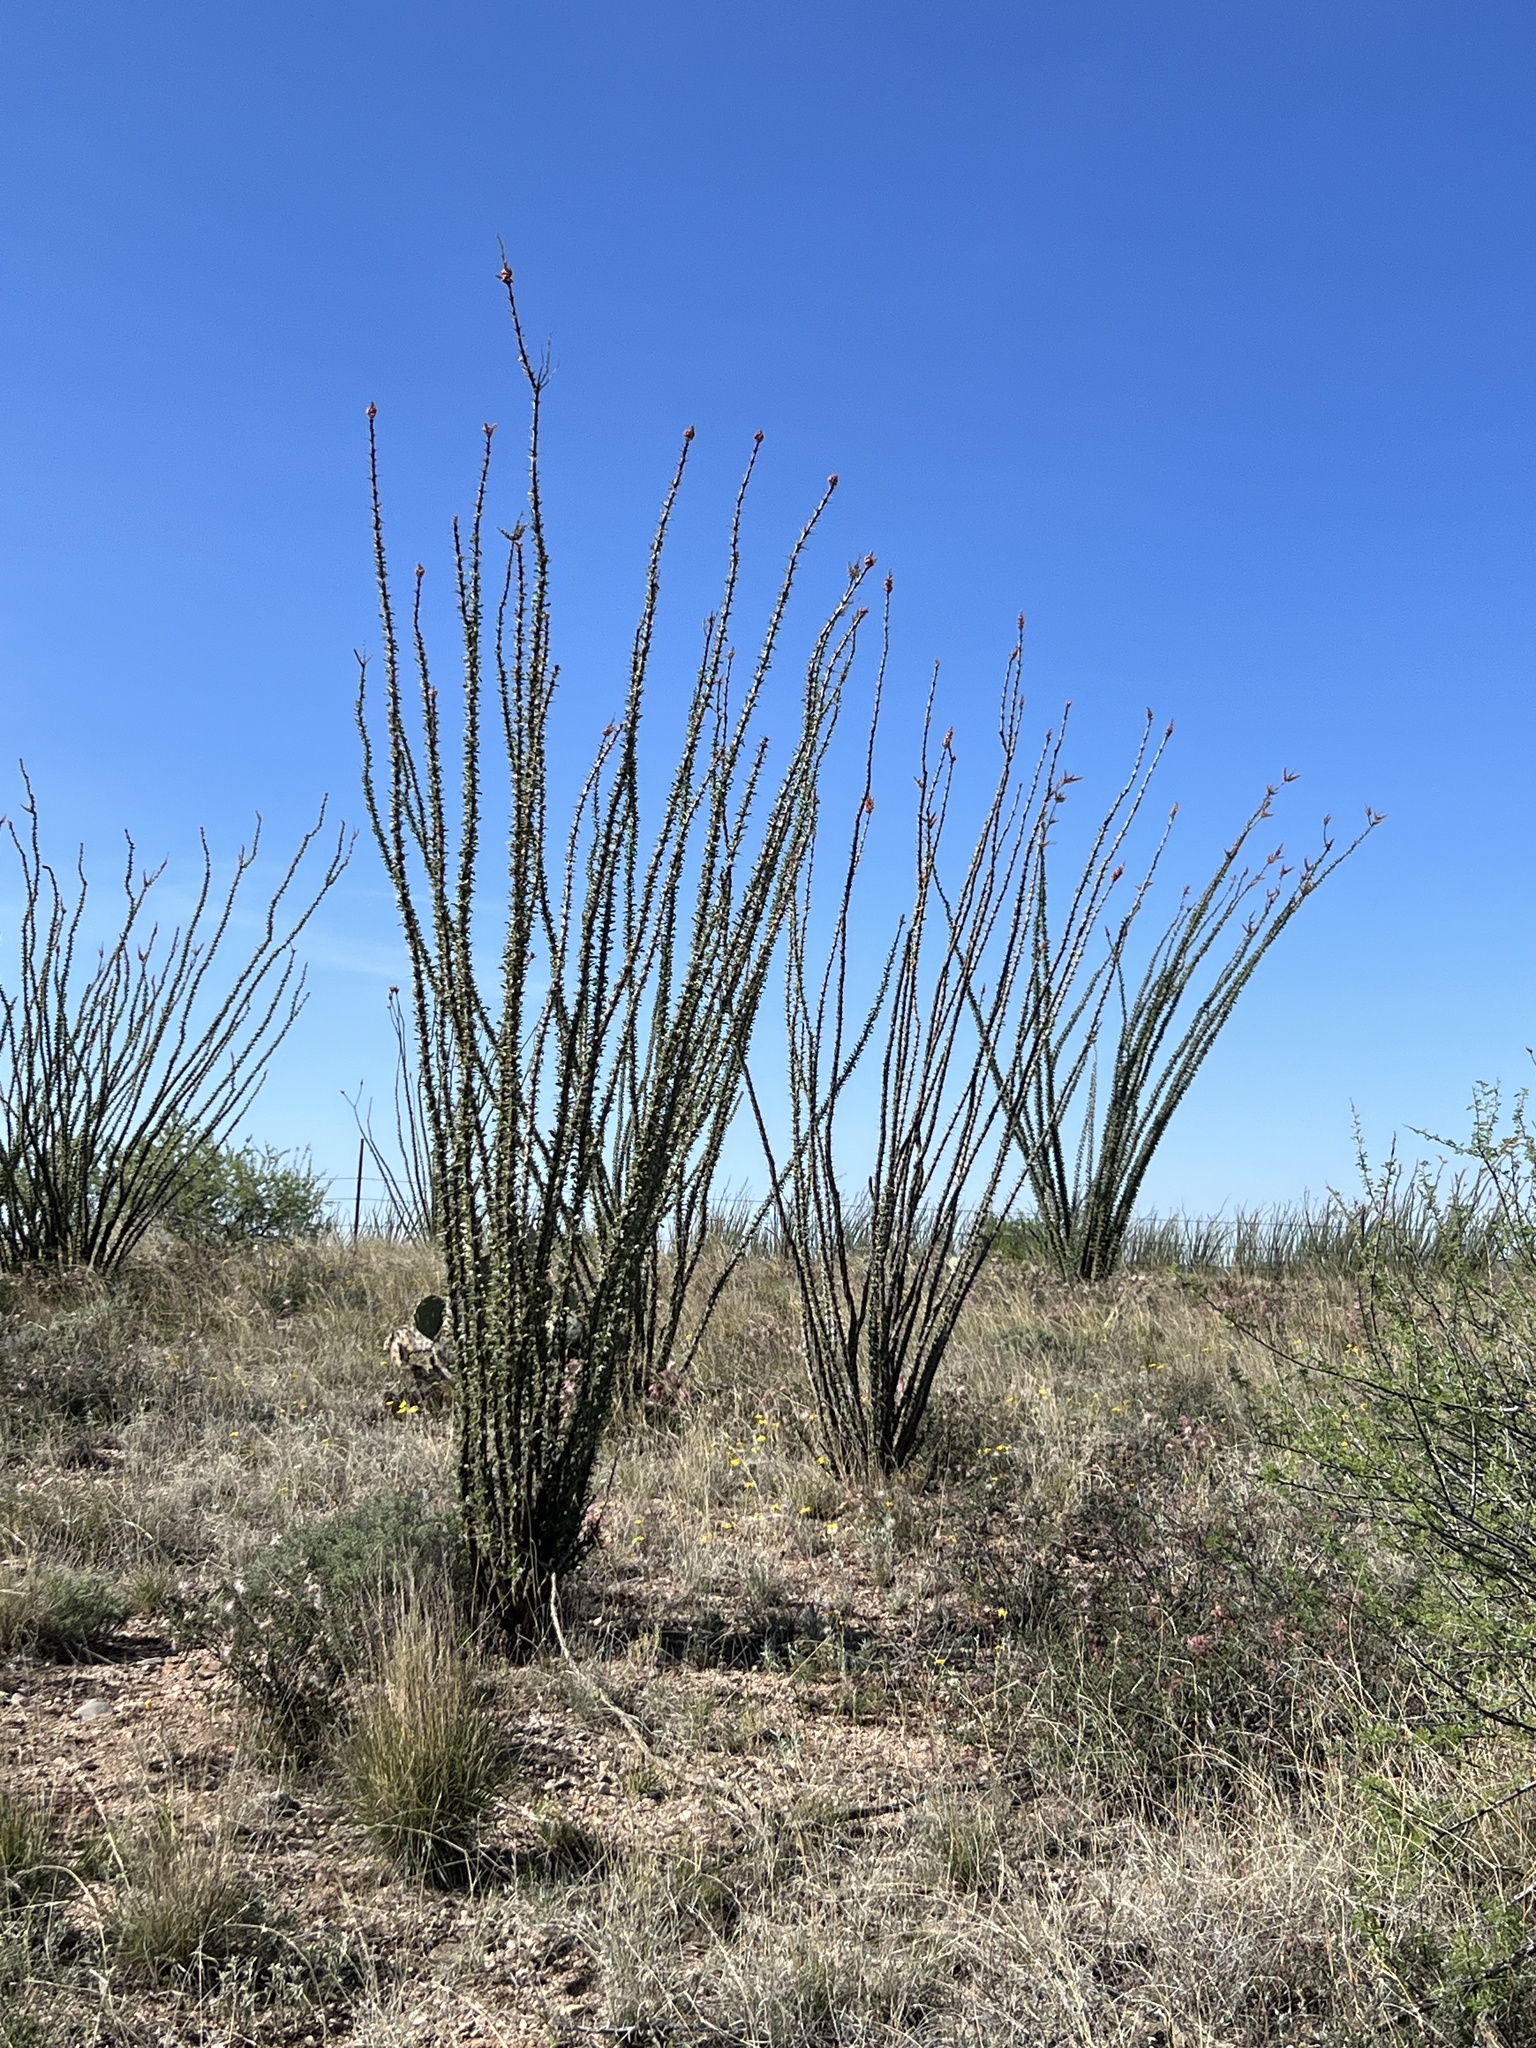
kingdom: Plantae
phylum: Tracheophyta
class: Magnoliopsida
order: Ericales
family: Fouquieriaceae
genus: Fouquieria
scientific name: Fouquieria splendens
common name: Vine-cactus
